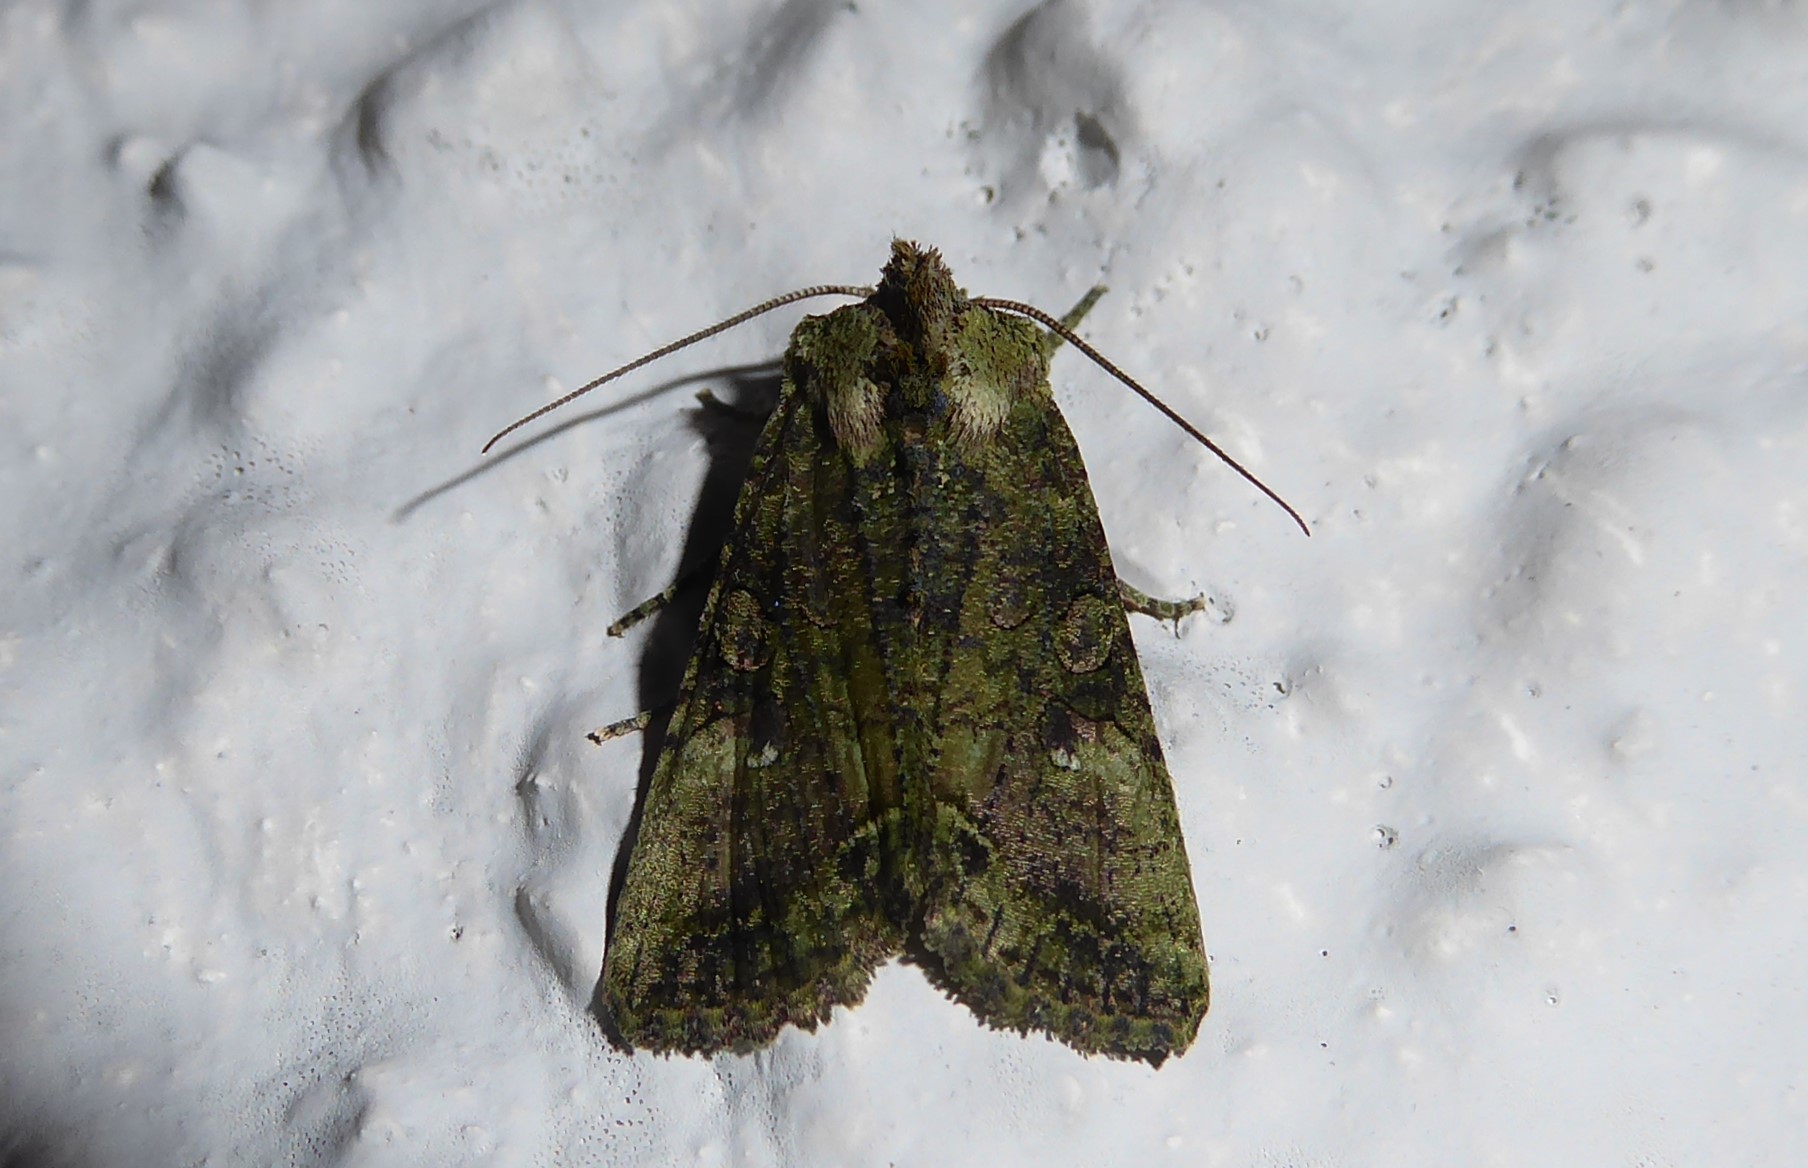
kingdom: Animalia
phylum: Arthropoda
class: Insecta
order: Lepidoptera
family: Noctuidae
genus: Meterana
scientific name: Meterana levis
